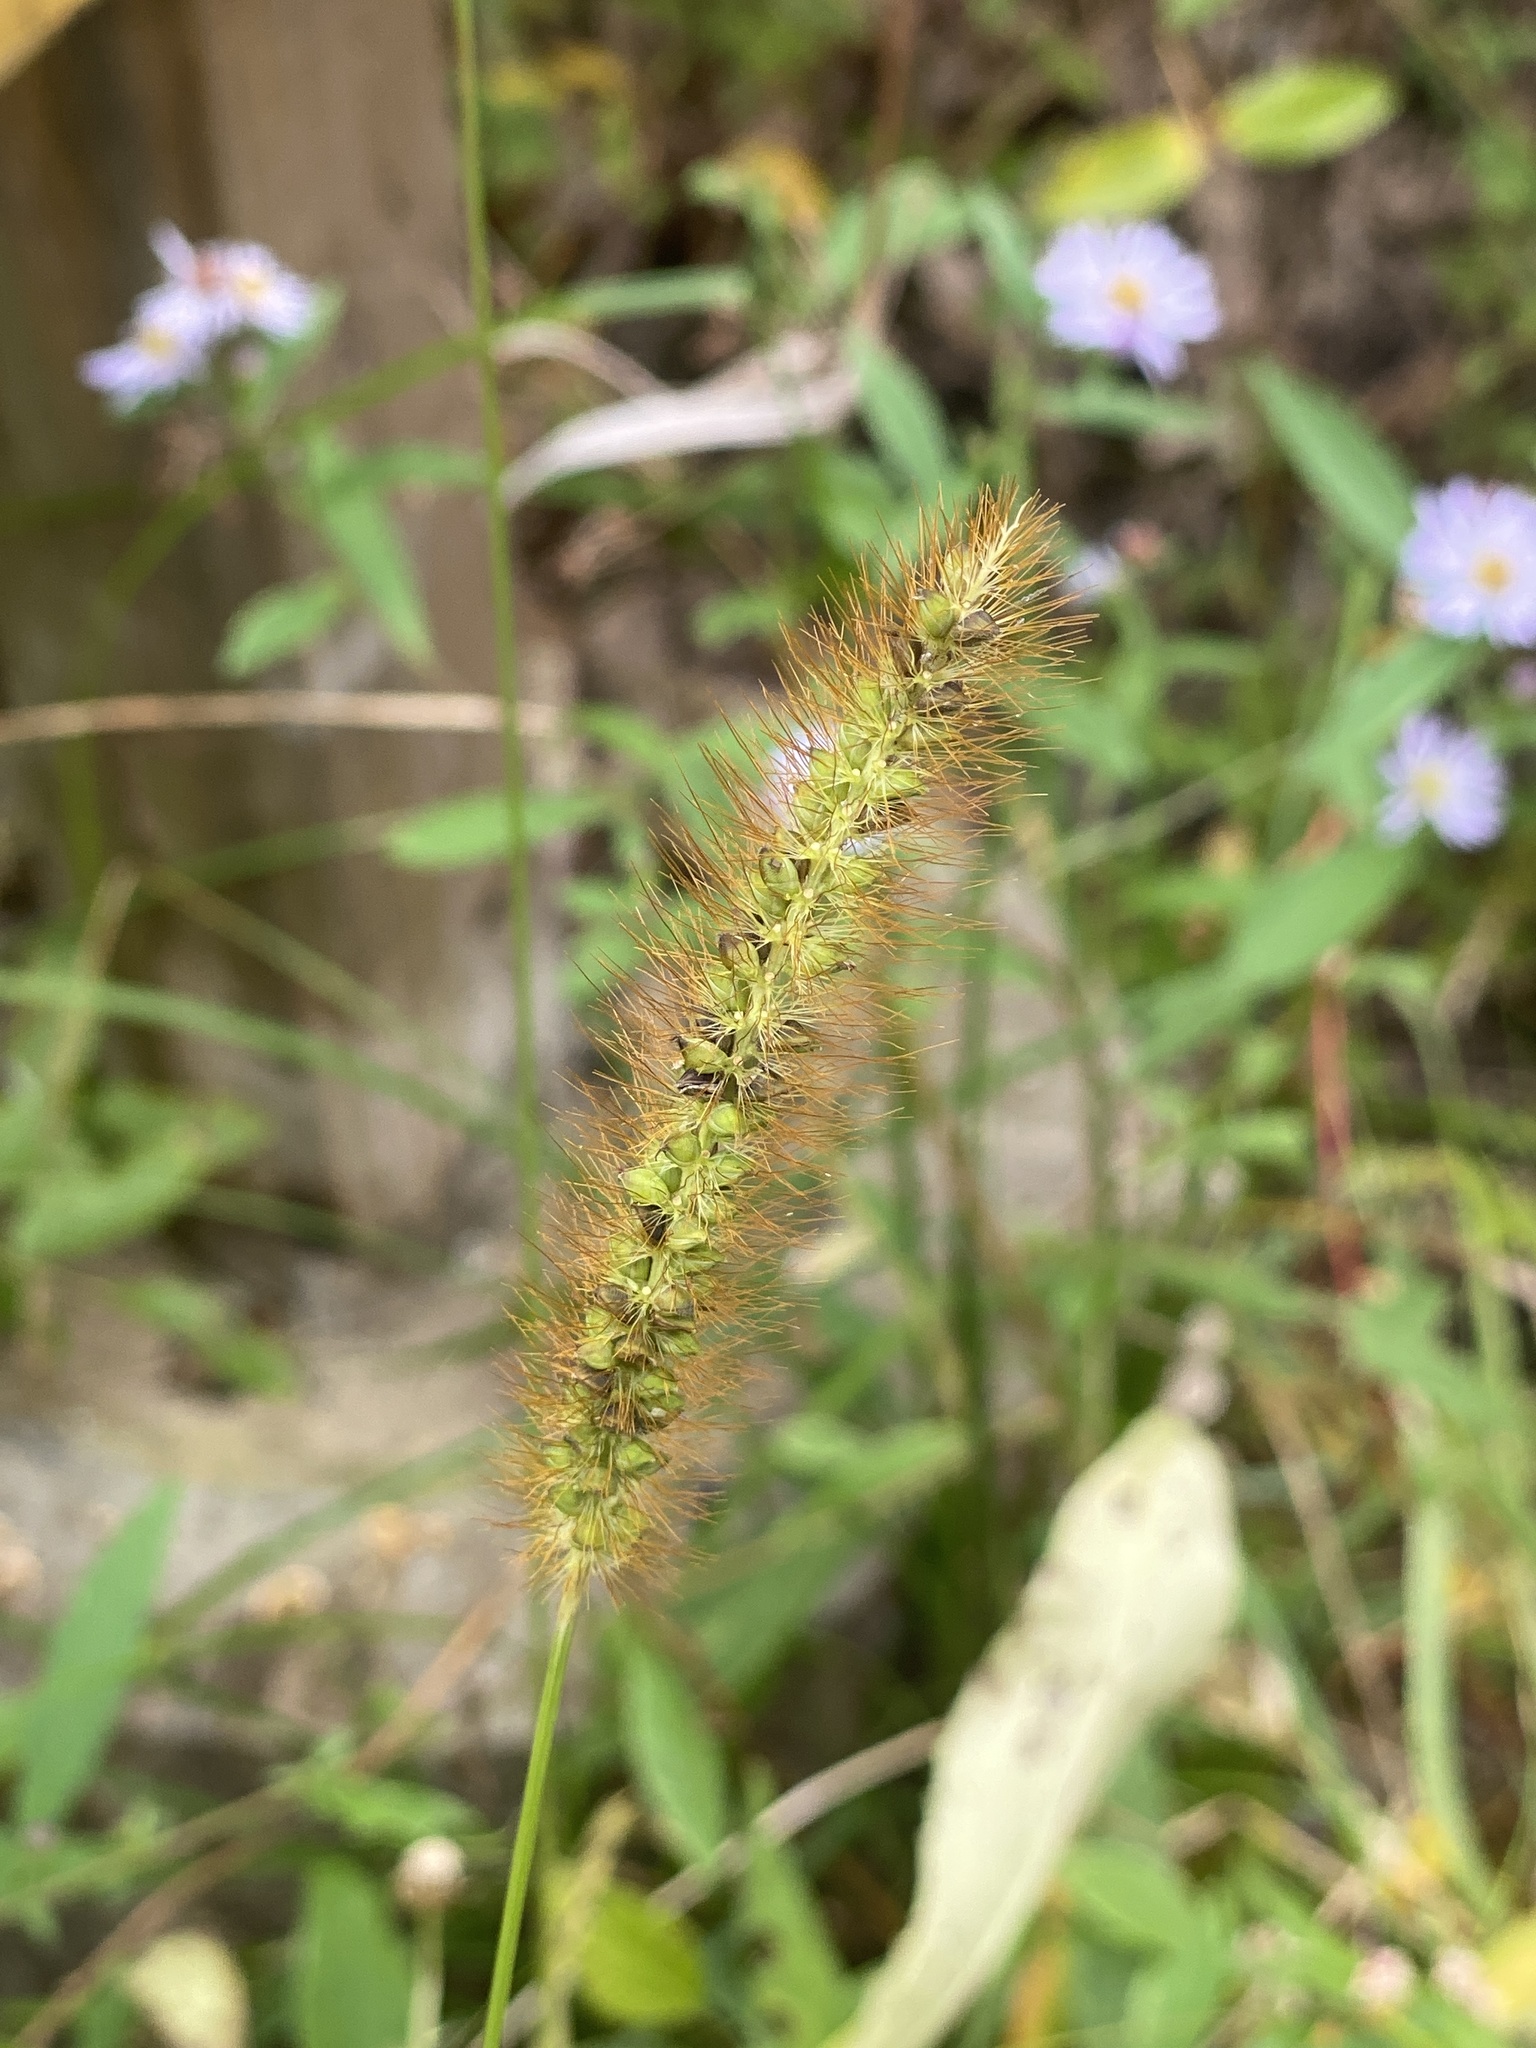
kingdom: Plantae
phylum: Tracheophyta
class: Liliopsida
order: Poales
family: Poaceae
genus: Setaria
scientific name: Setaria pumila
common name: Yellow bristle-grass
